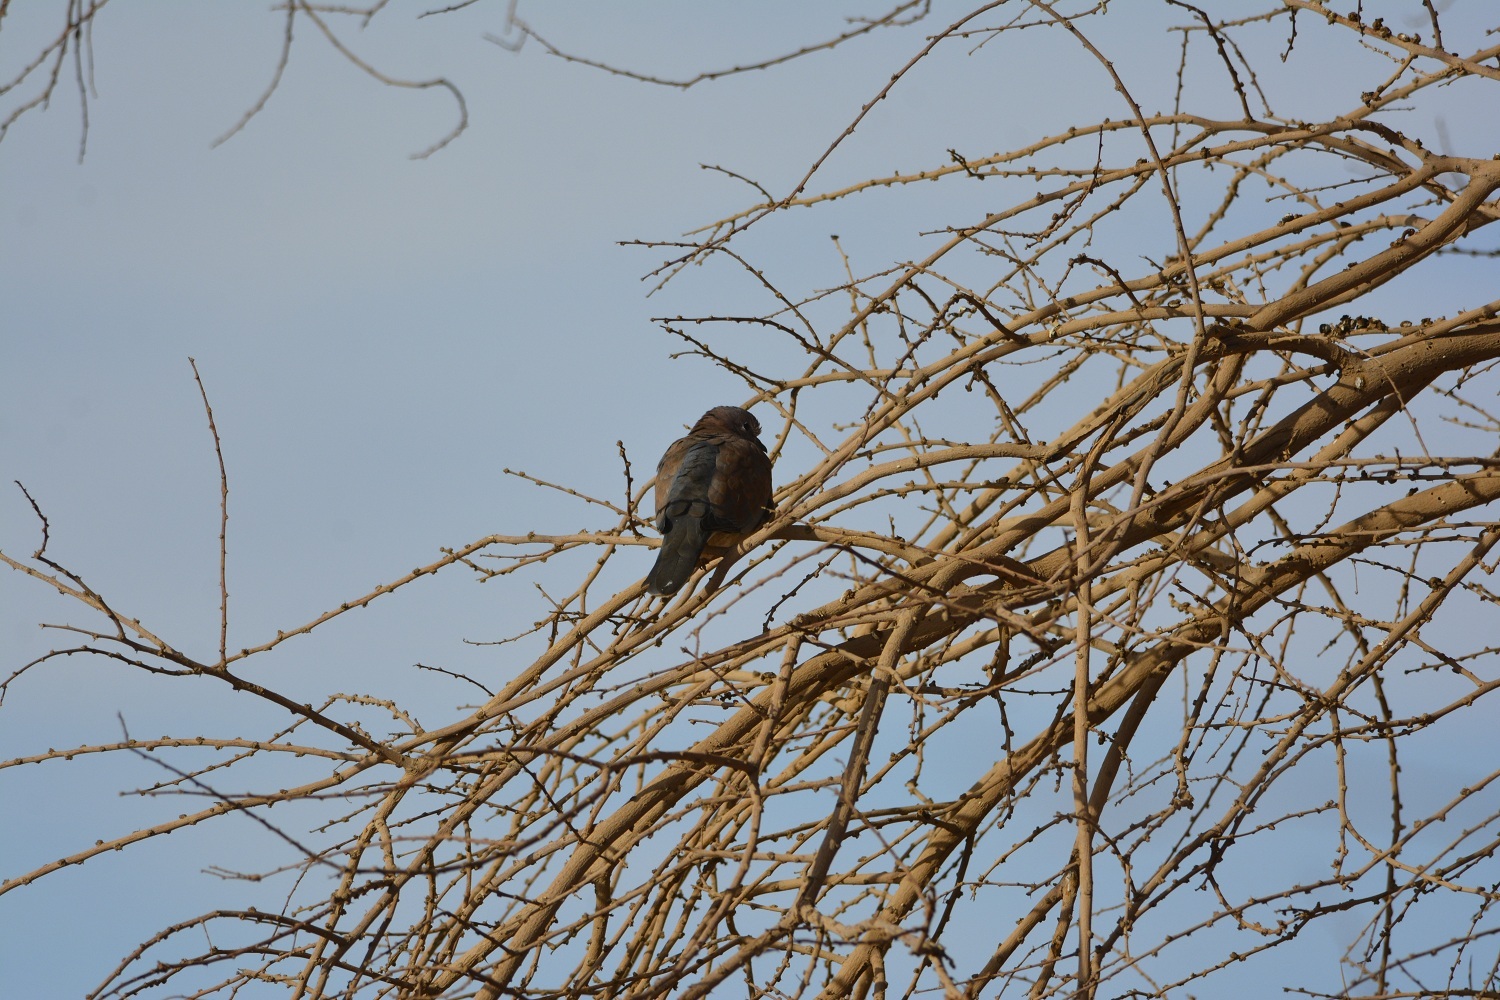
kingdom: Animalia
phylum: Chordata
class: Aves
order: Columbiformes
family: Columbidae
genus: Spilopelia
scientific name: Spilopelia senegalensis
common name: Laughing dove
